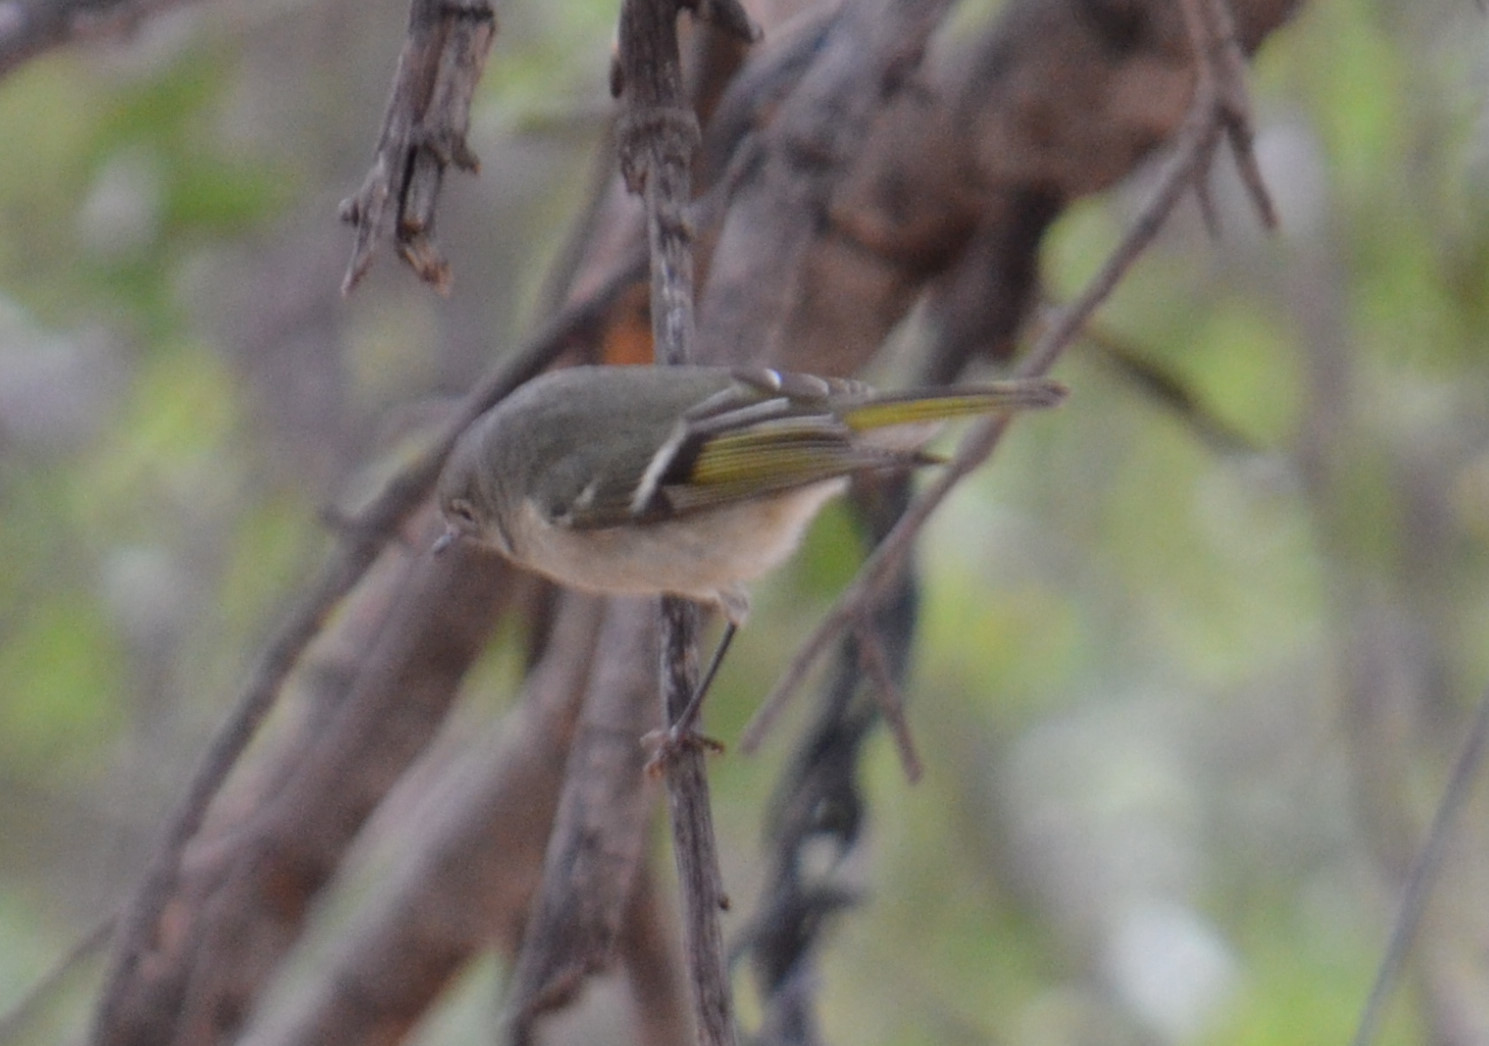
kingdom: Animalia
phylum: Chordata
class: Aves
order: Passeriformes
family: Regulidae
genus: Regulus
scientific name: Regulus calendula
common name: Ruby-crowned kinglet
